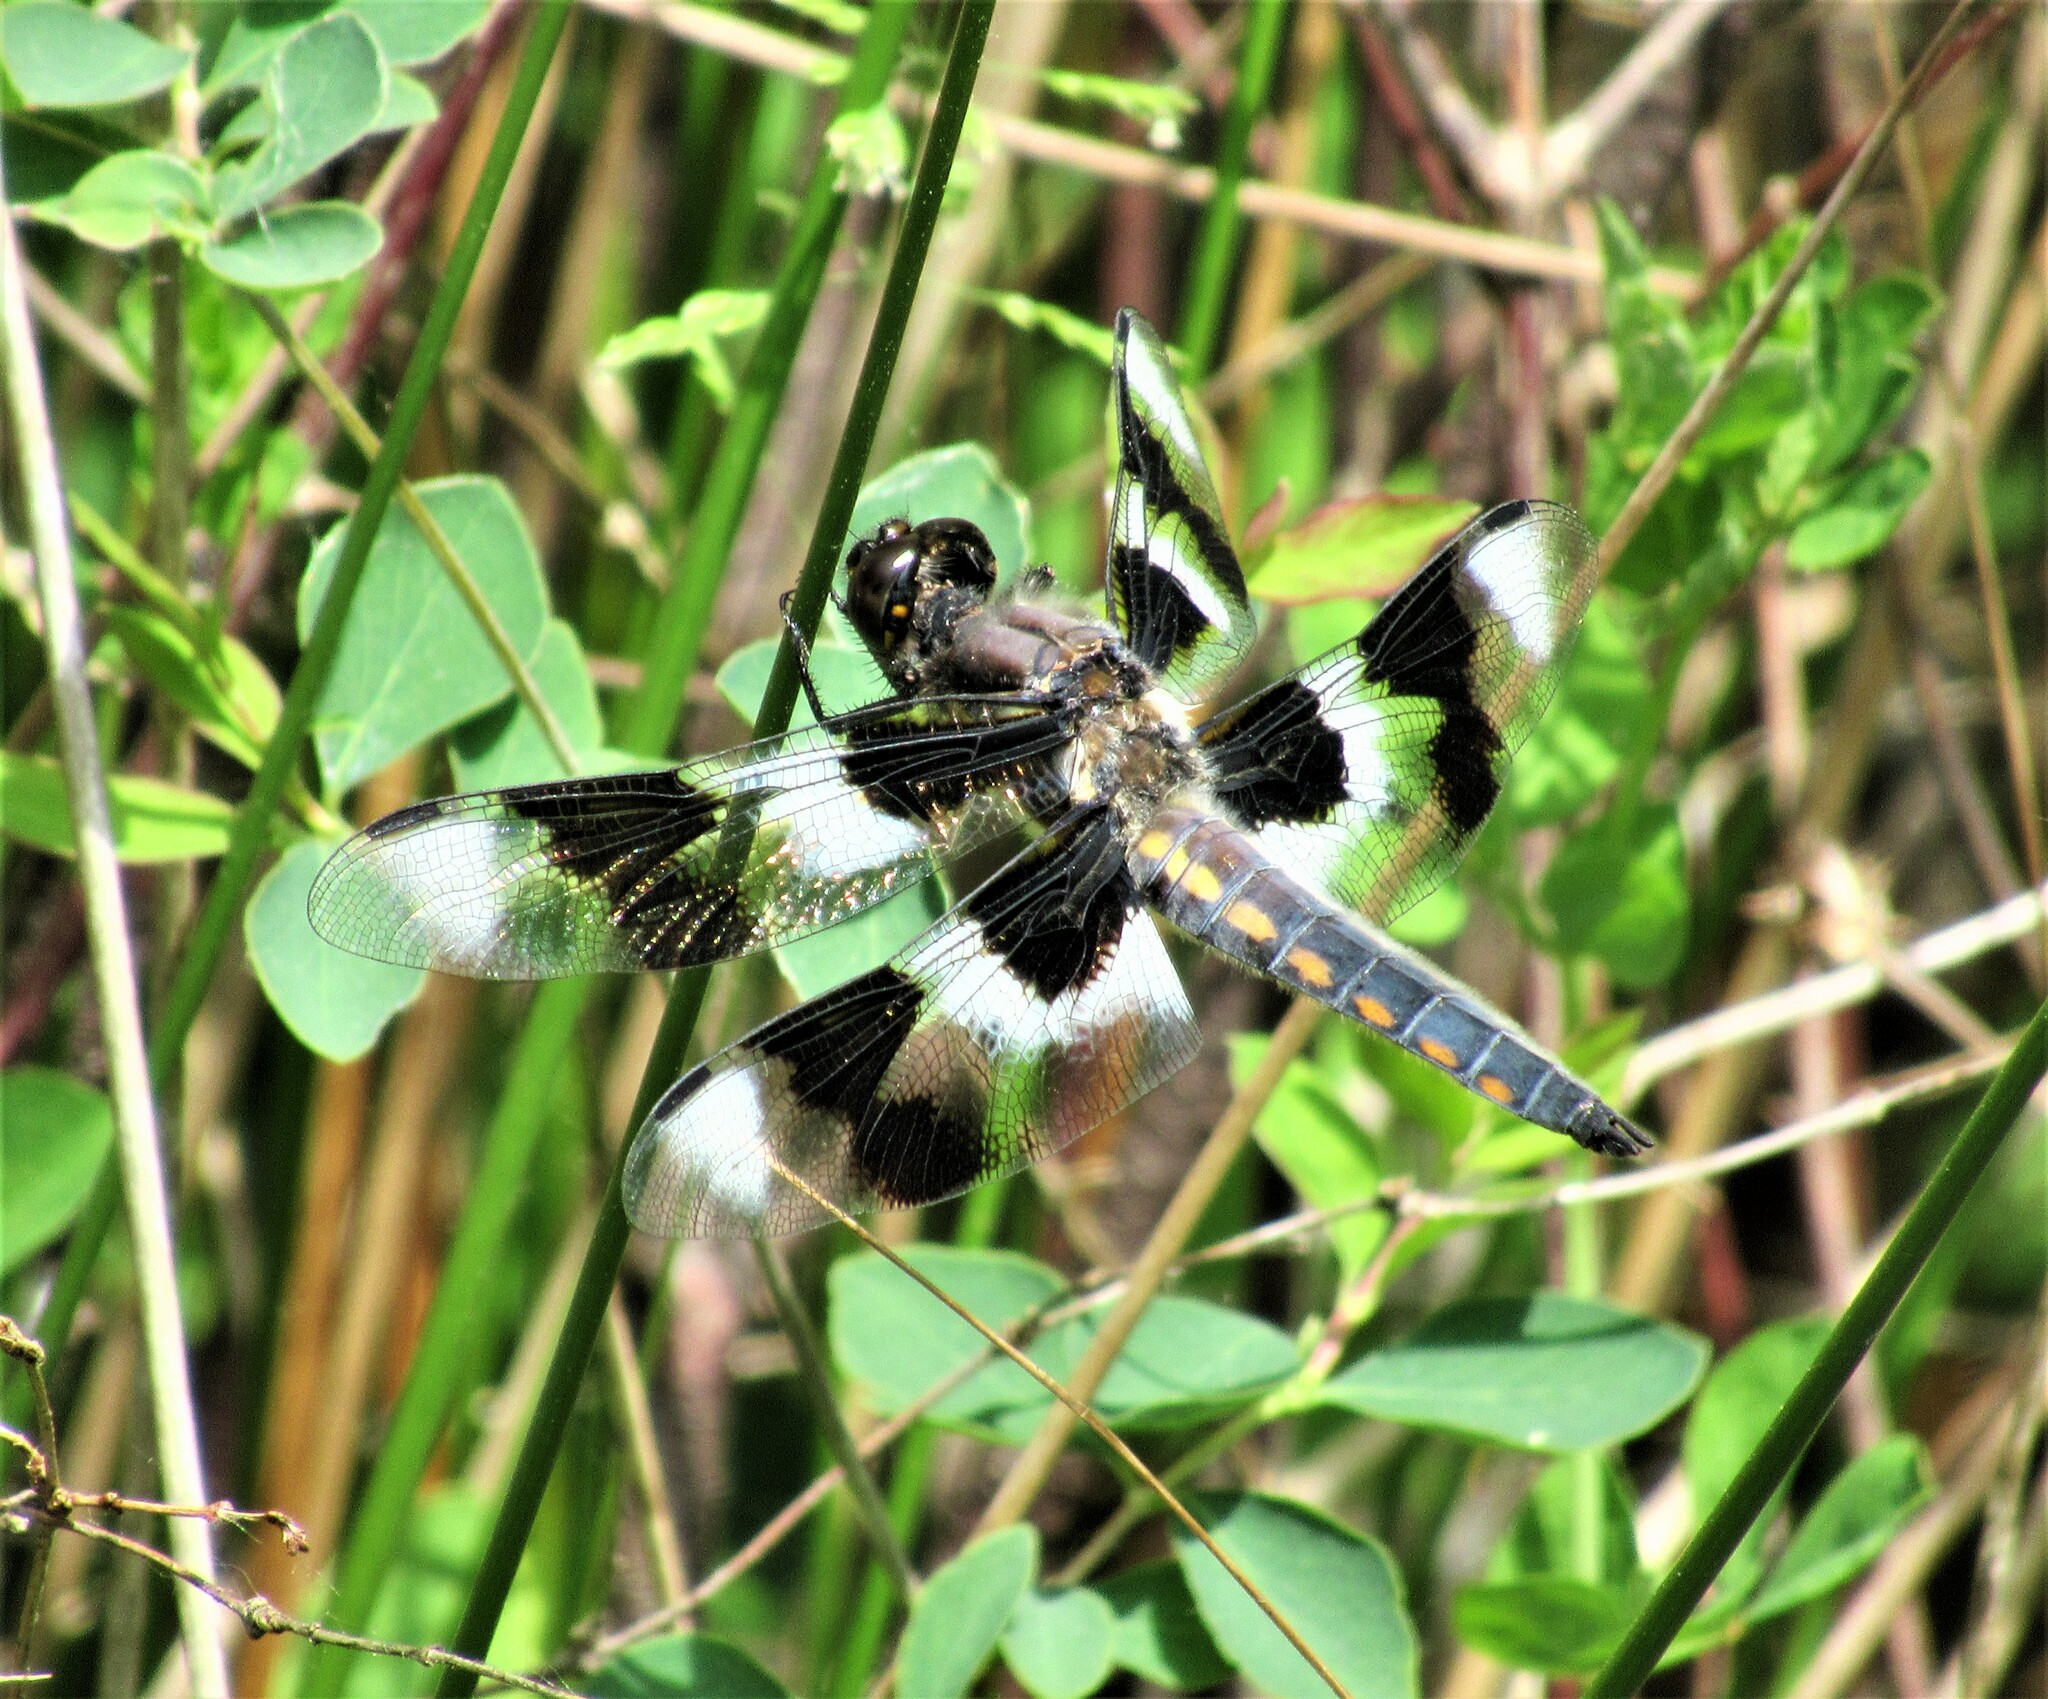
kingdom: Animalia
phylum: Arthropoda
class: Insecta
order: Odonata
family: Libellulidae
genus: Libellula
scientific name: Libellula forensis
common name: Eight-spotted skimmer
